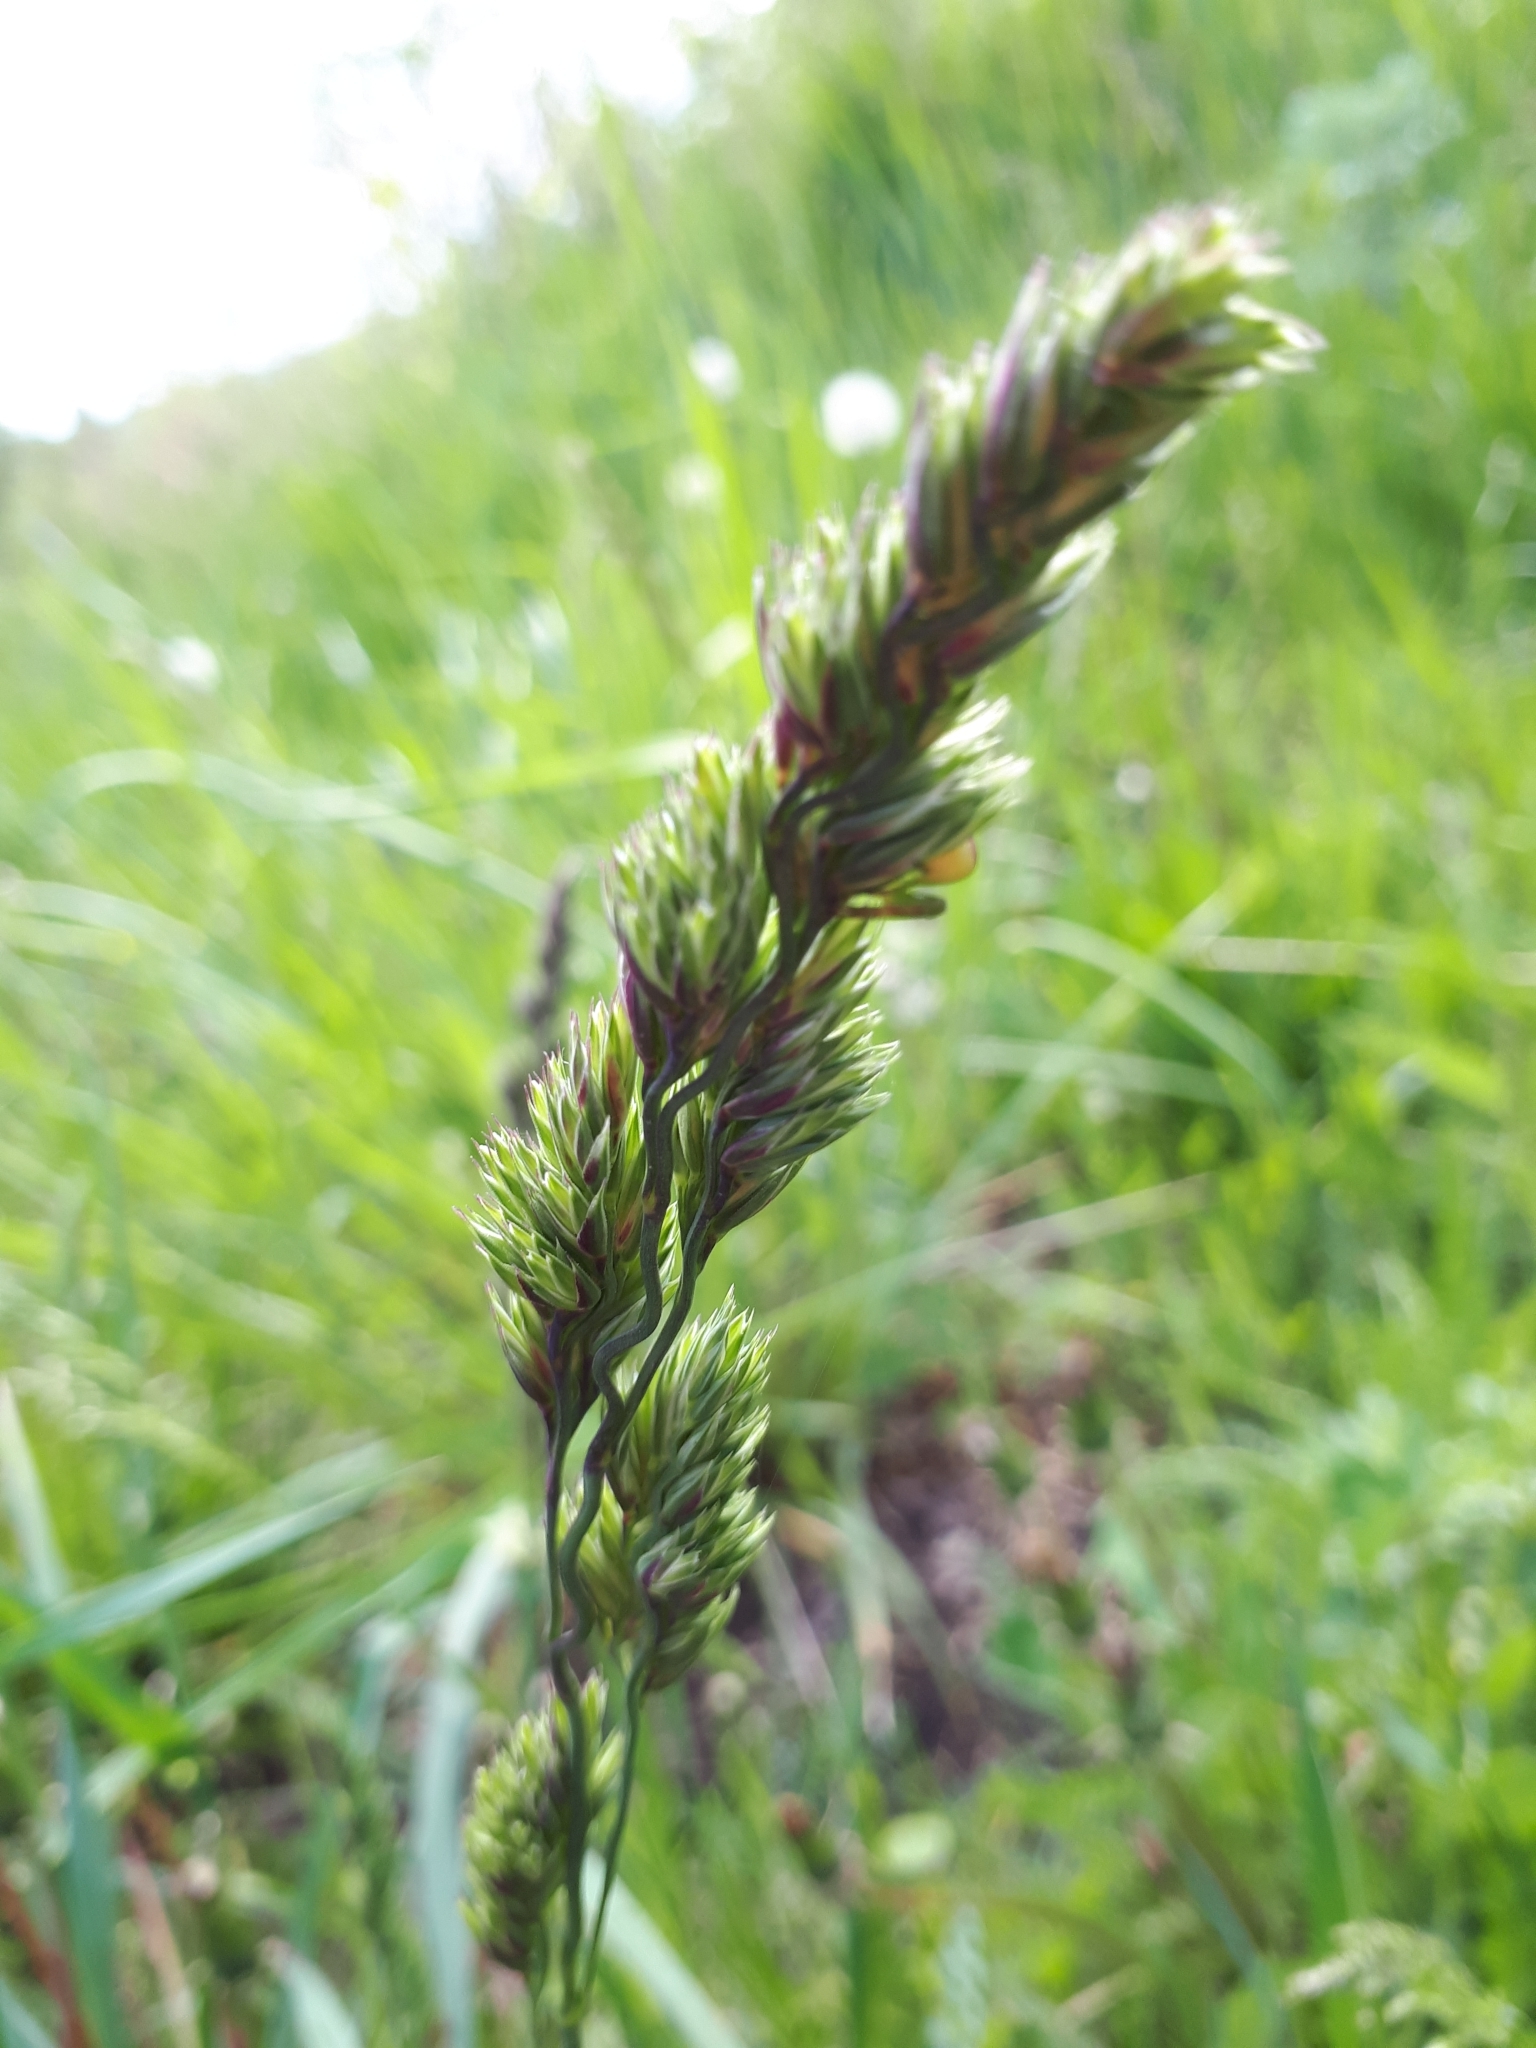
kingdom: Plantae
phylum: Tracheophyta
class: Liliopsida
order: Poales
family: Poaceae
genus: Dactylis
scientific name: Dactylis glomerata
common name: Orchardgrass
